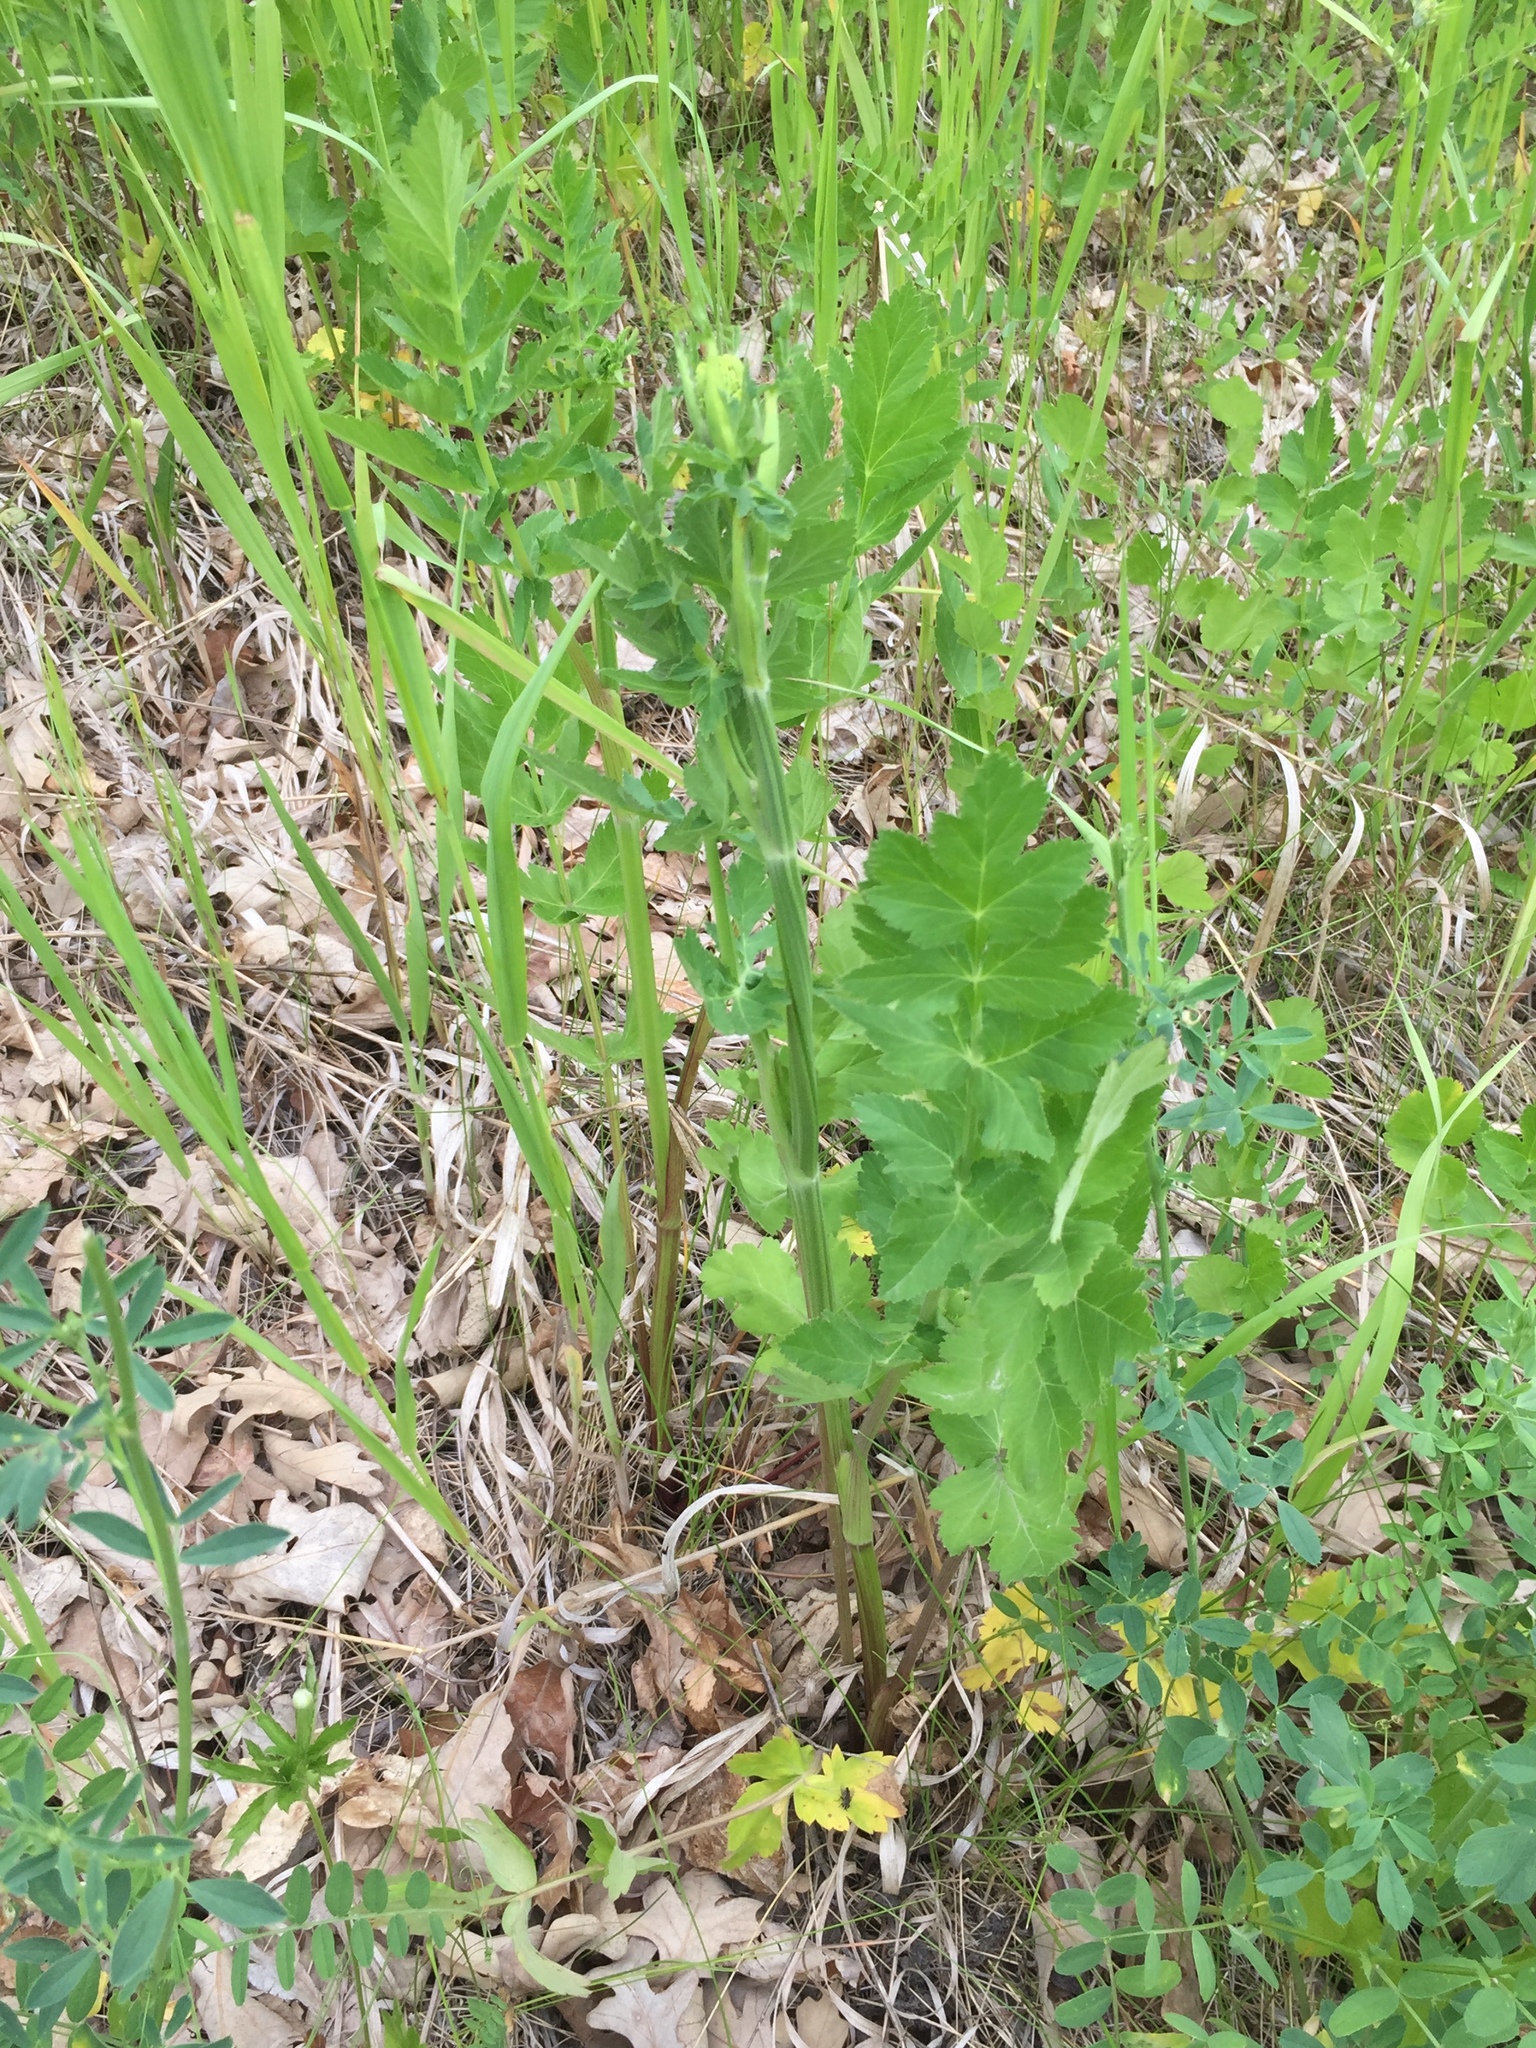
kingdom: Plantae
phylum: Tracheophyta
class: Magnoliopsida
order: Apiales
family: Apiaceae
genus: Pastinaca
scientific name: Pastinaca sativa
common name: Wild parsnip
